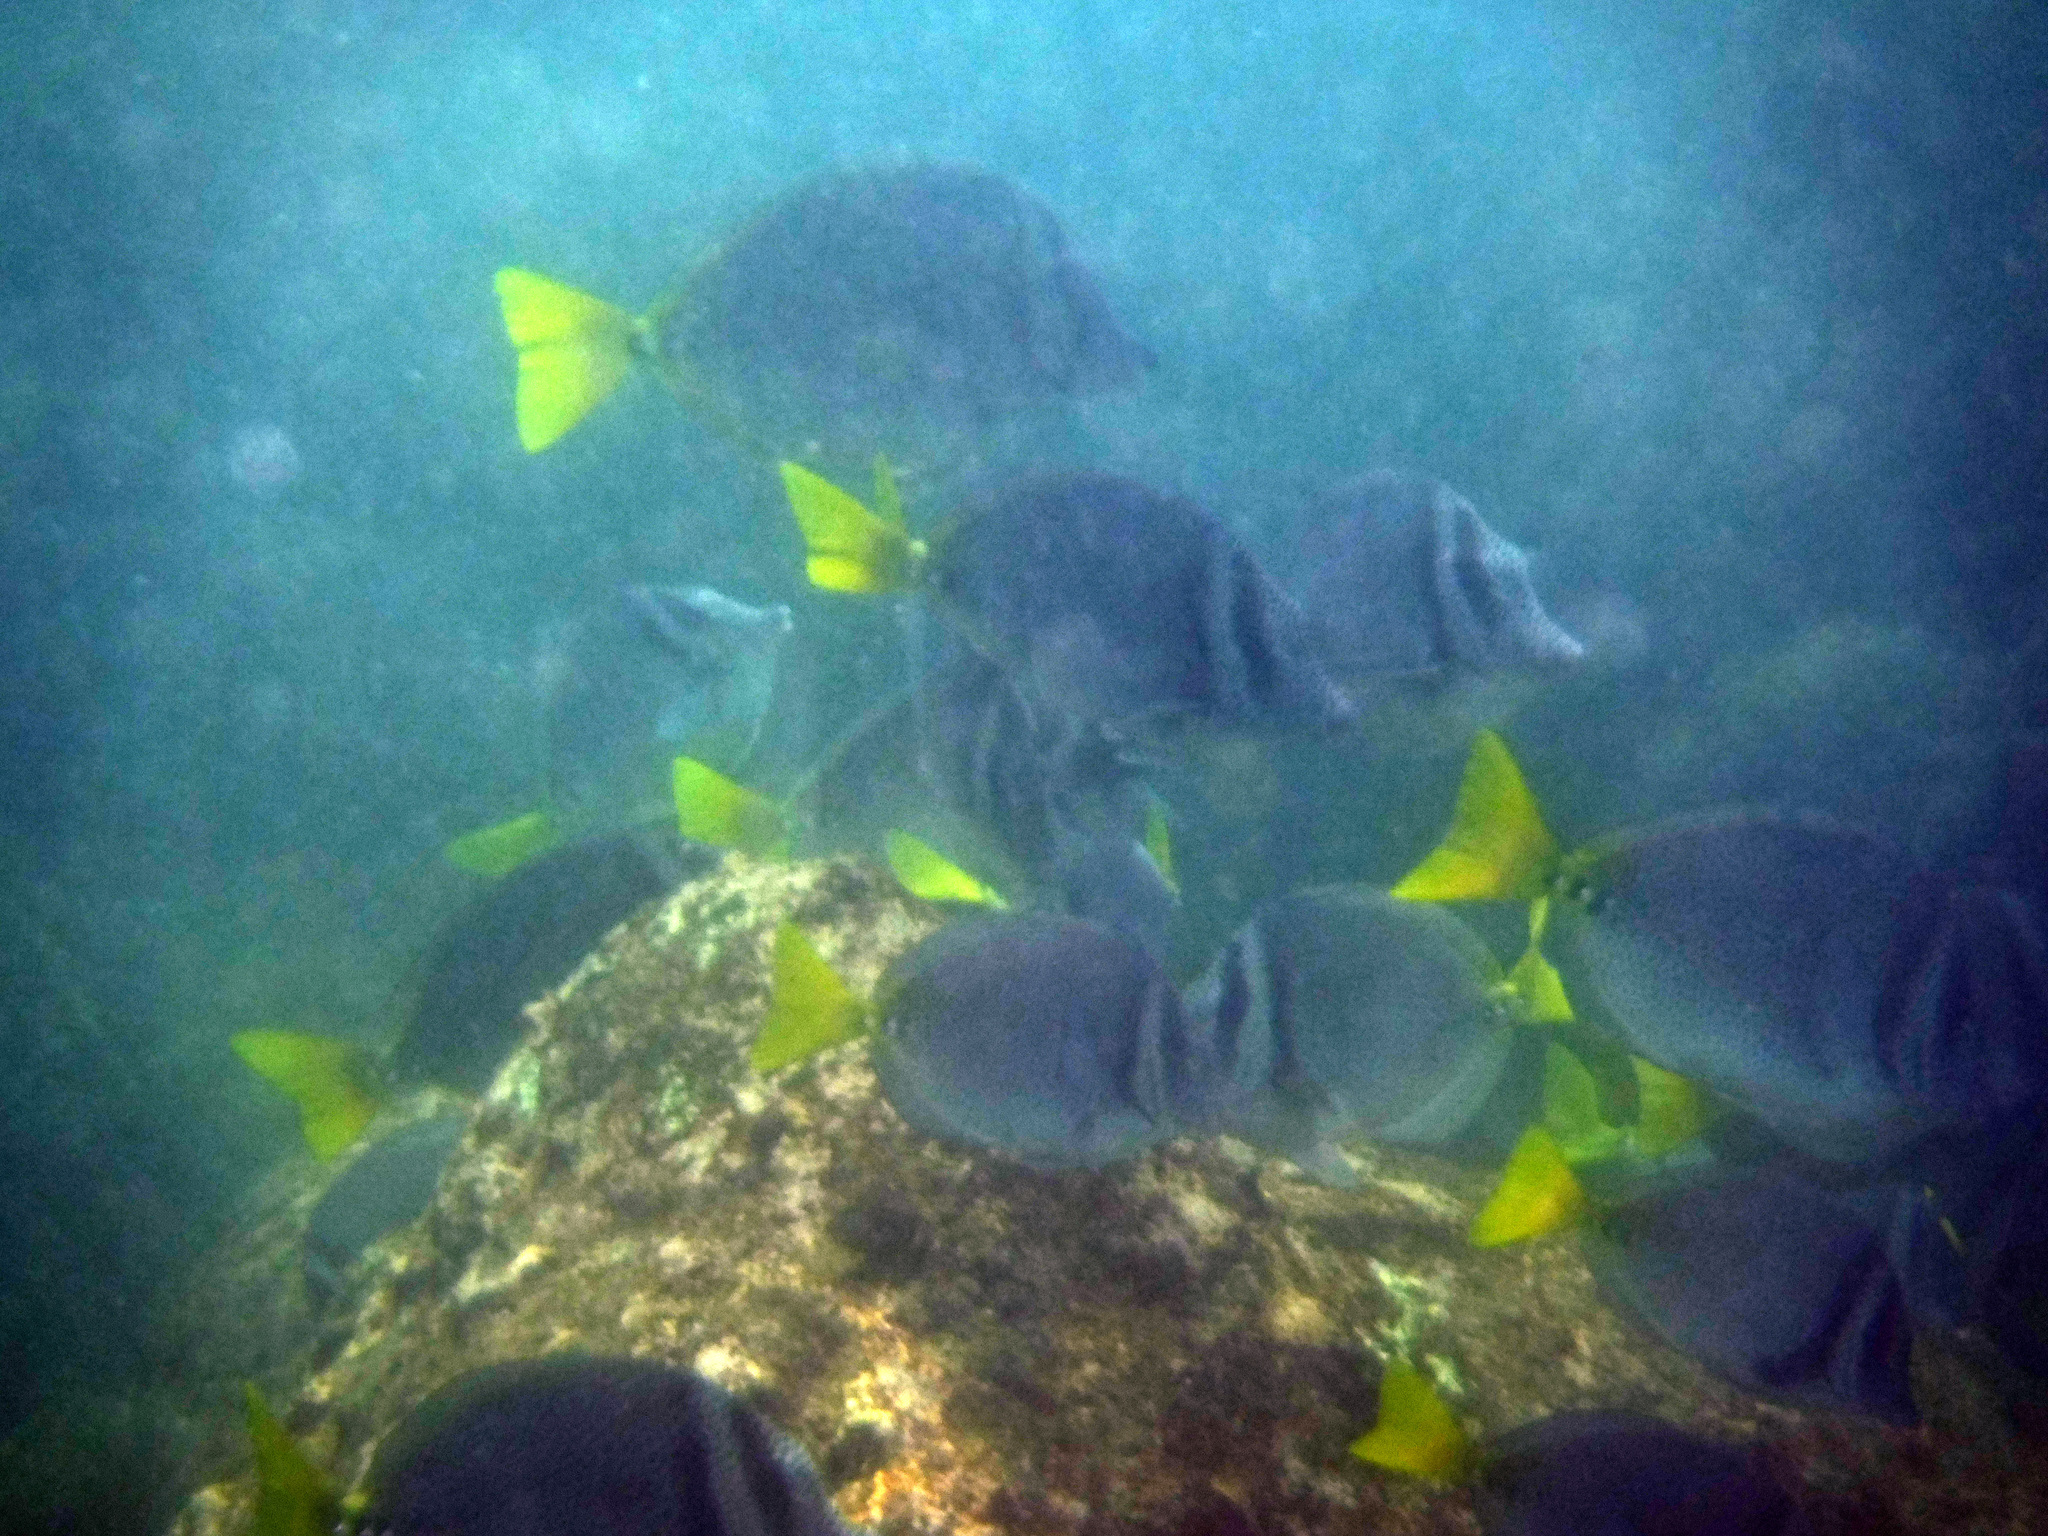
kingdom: Animalia
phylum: Chordata
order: Perciformes
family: Acanthuridae
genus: Prionurus
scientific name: Prionurus laticlavius
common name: Razor surgeonfish
